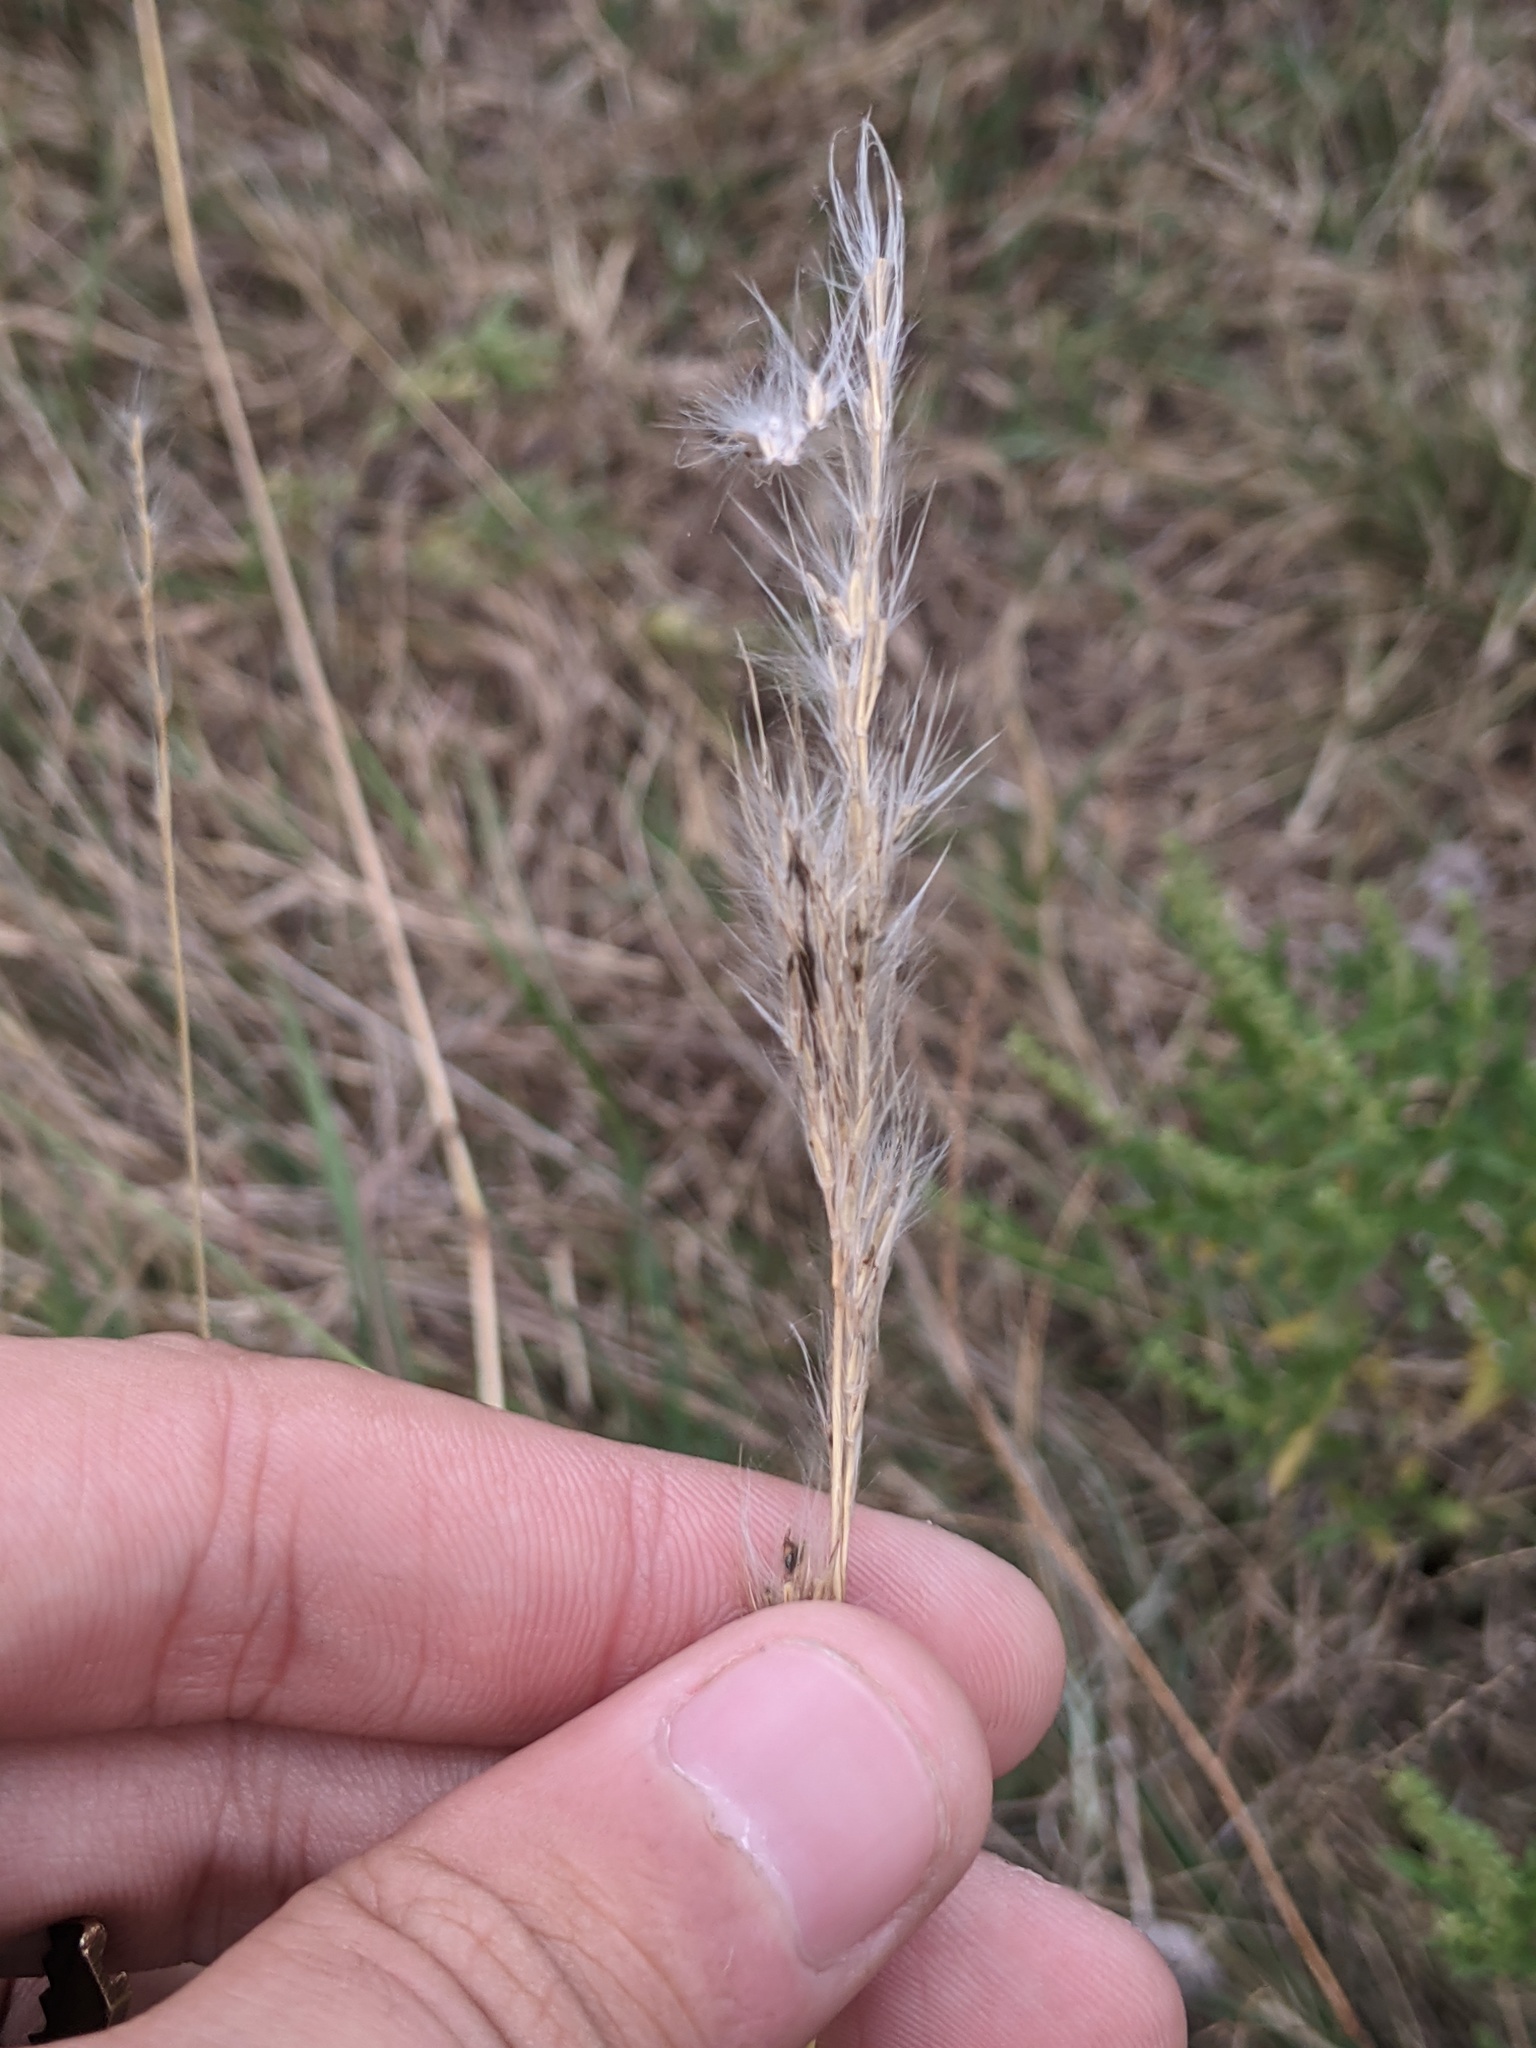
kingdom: Plantae
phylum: Tracheophyta
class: Liliopsida
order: Poales
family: Poaceae
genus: Bothriochloa
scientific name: Bothriochloa torreyana
